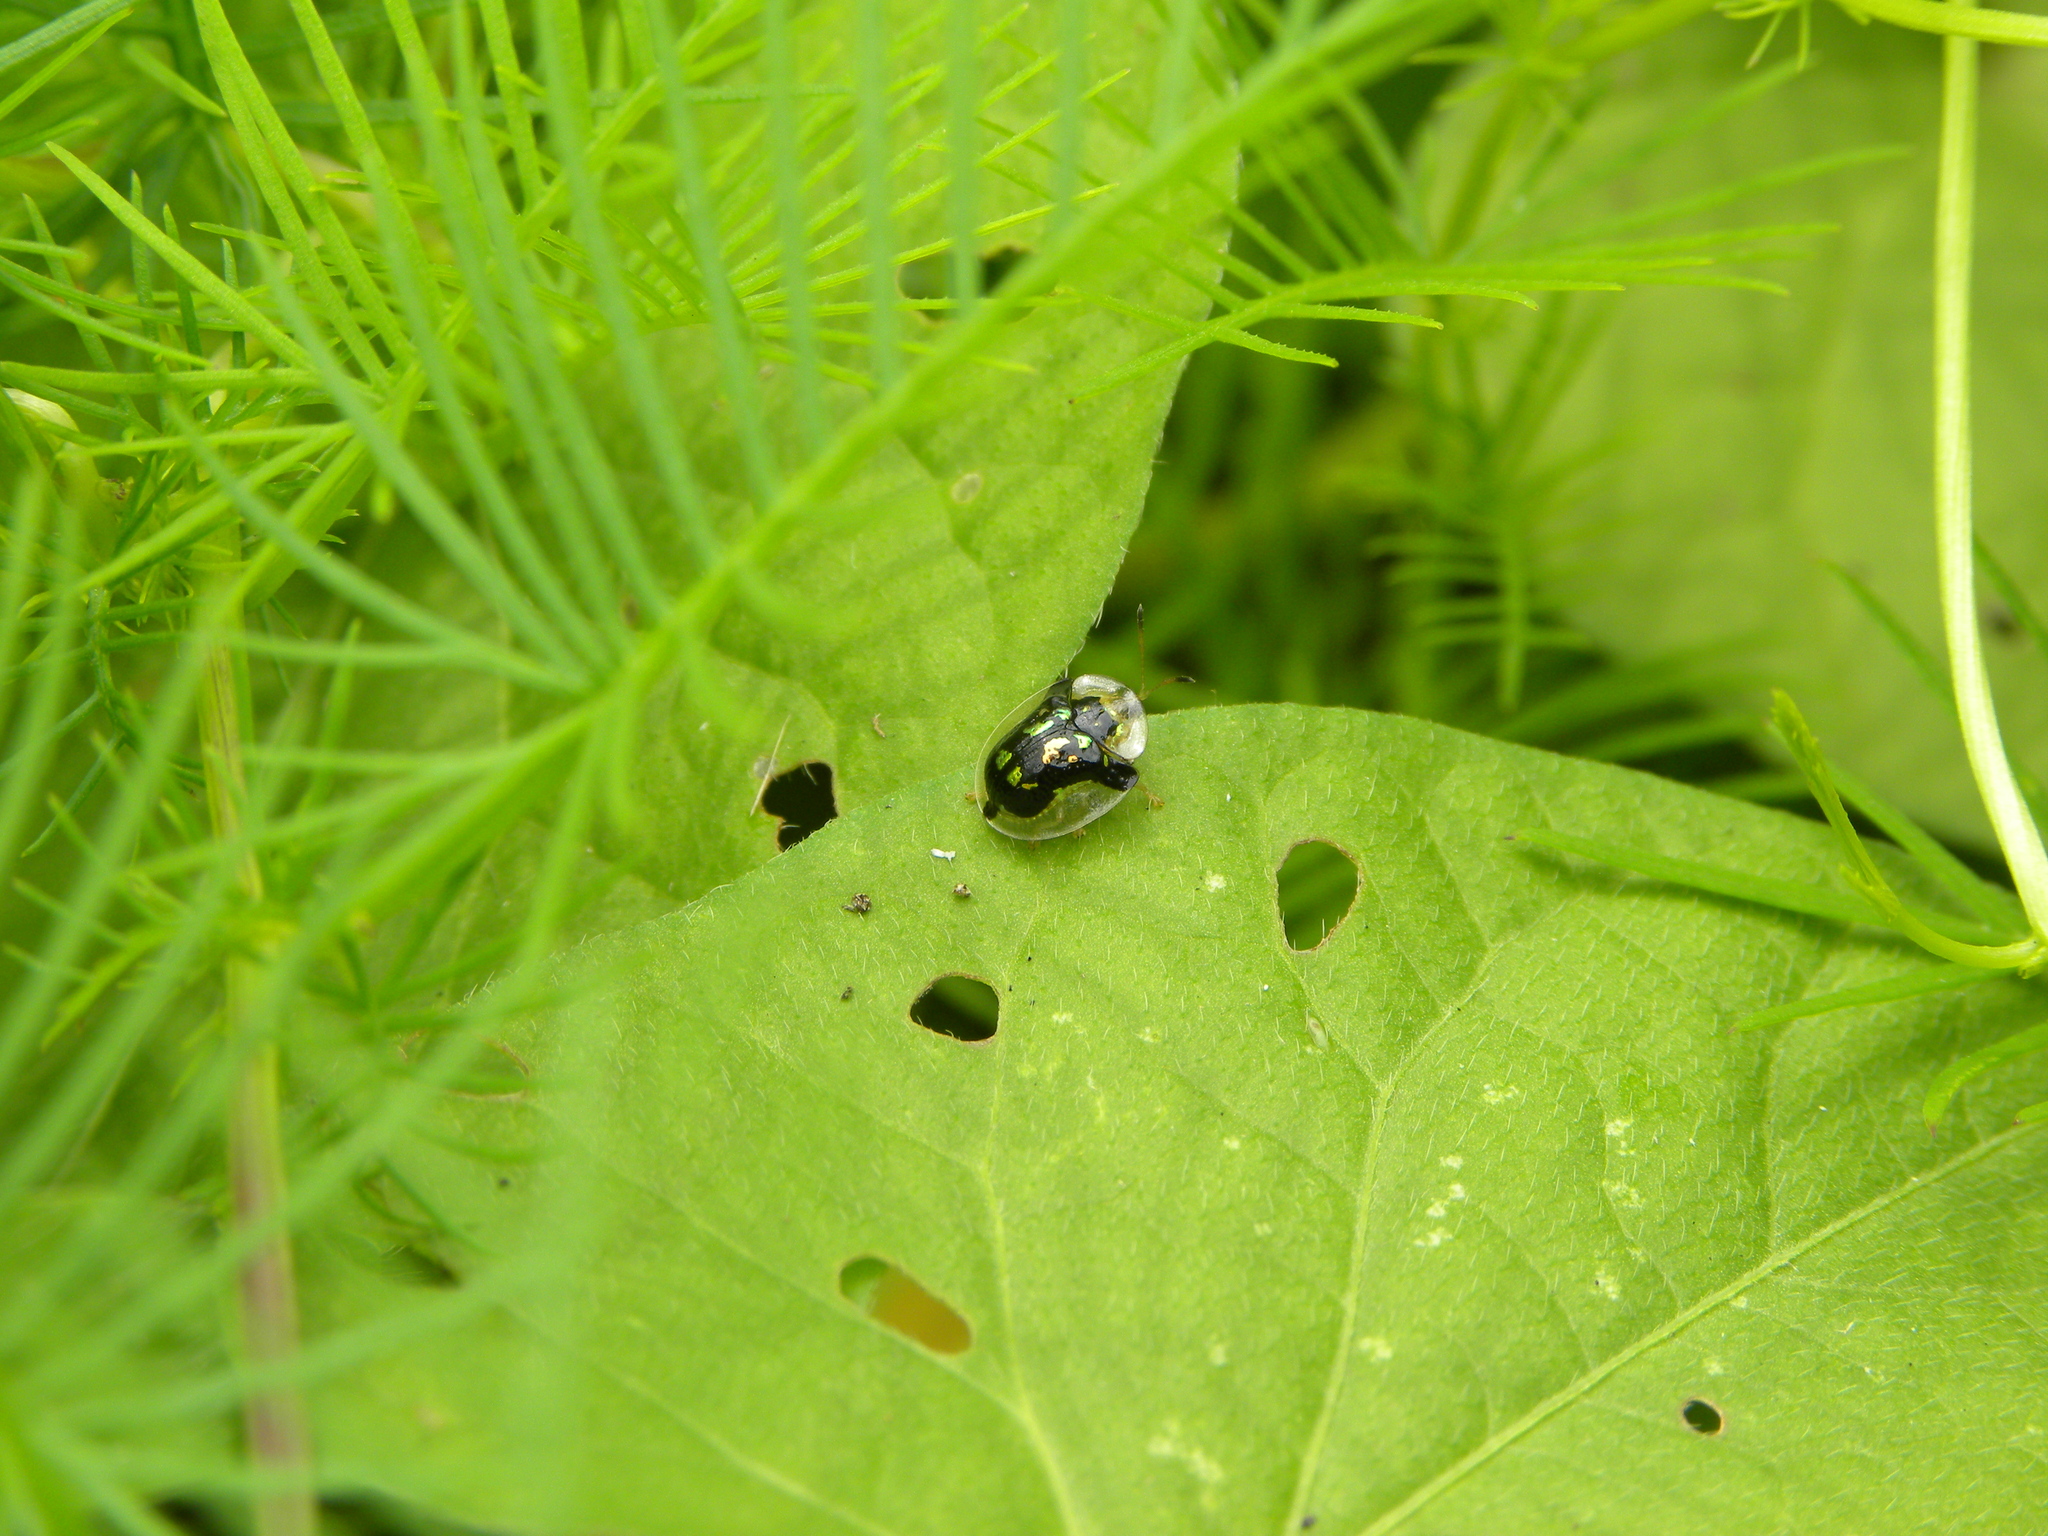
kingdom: Animalia
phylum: Arthropoda
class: Insecta
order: Coleoptera
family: Chrysomelidae
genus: Deloyala
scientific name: Deloyala guttata
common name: Mottled tortoise beetle
